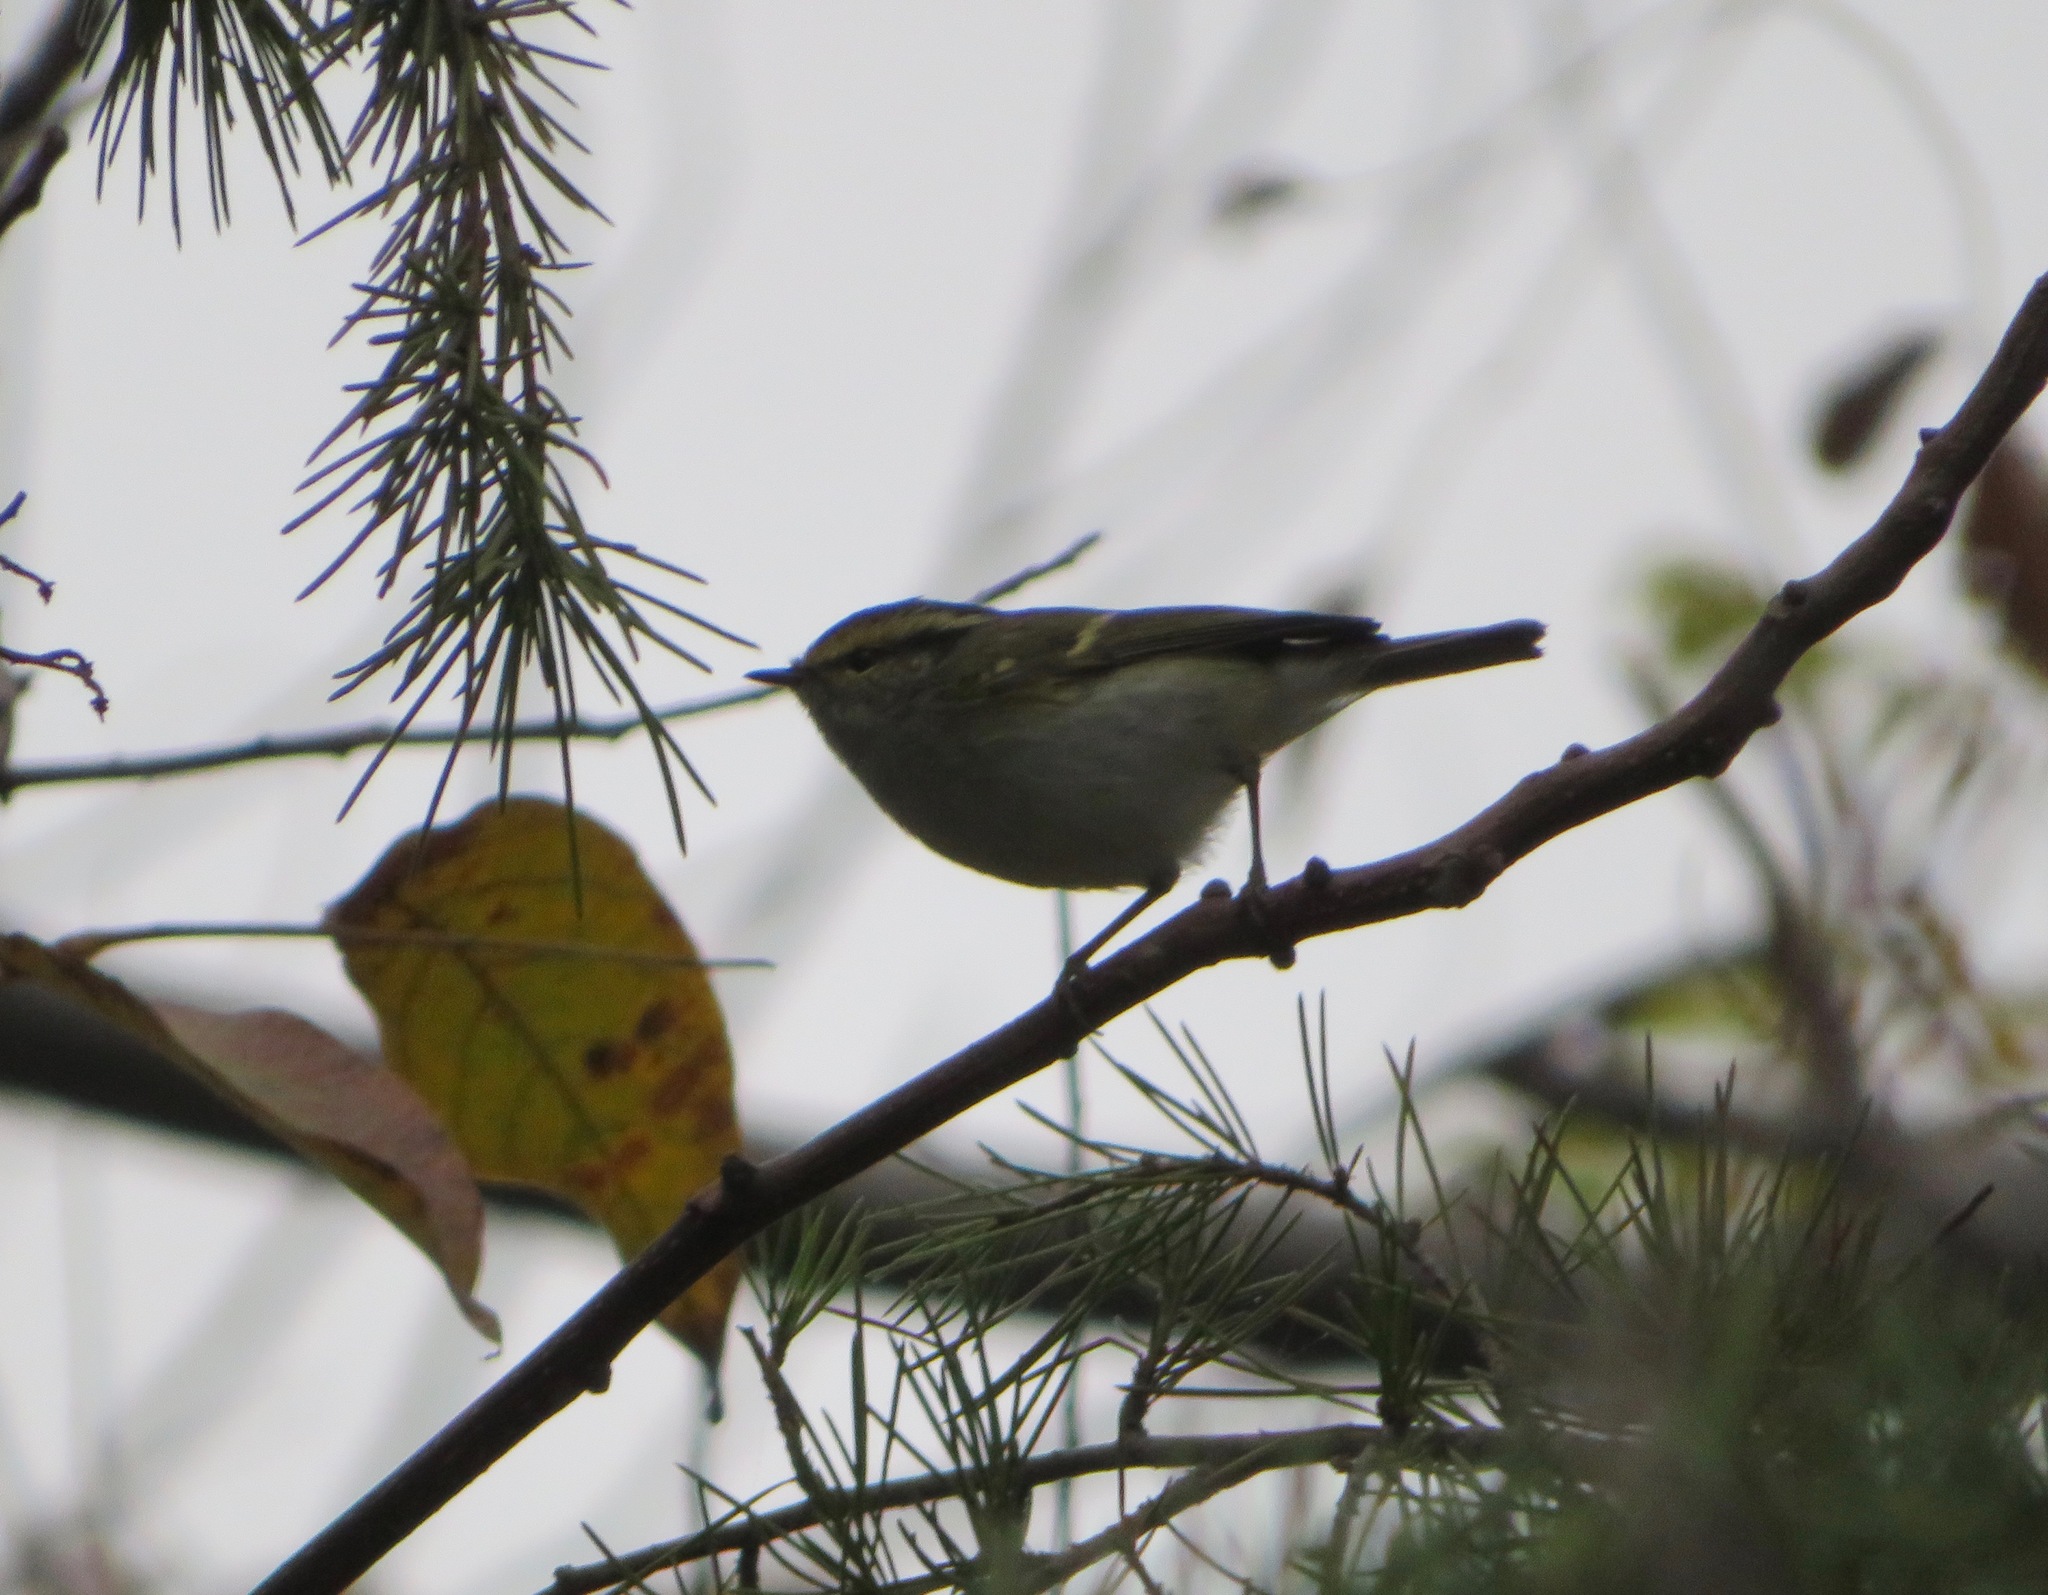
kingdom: Animalia
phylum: Chordata
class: Aves
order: Passeriformes
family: Phylloscopidae
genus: Phylloscopus
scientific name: Phylloscopus inornatus
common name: Yellow-browed warbler
